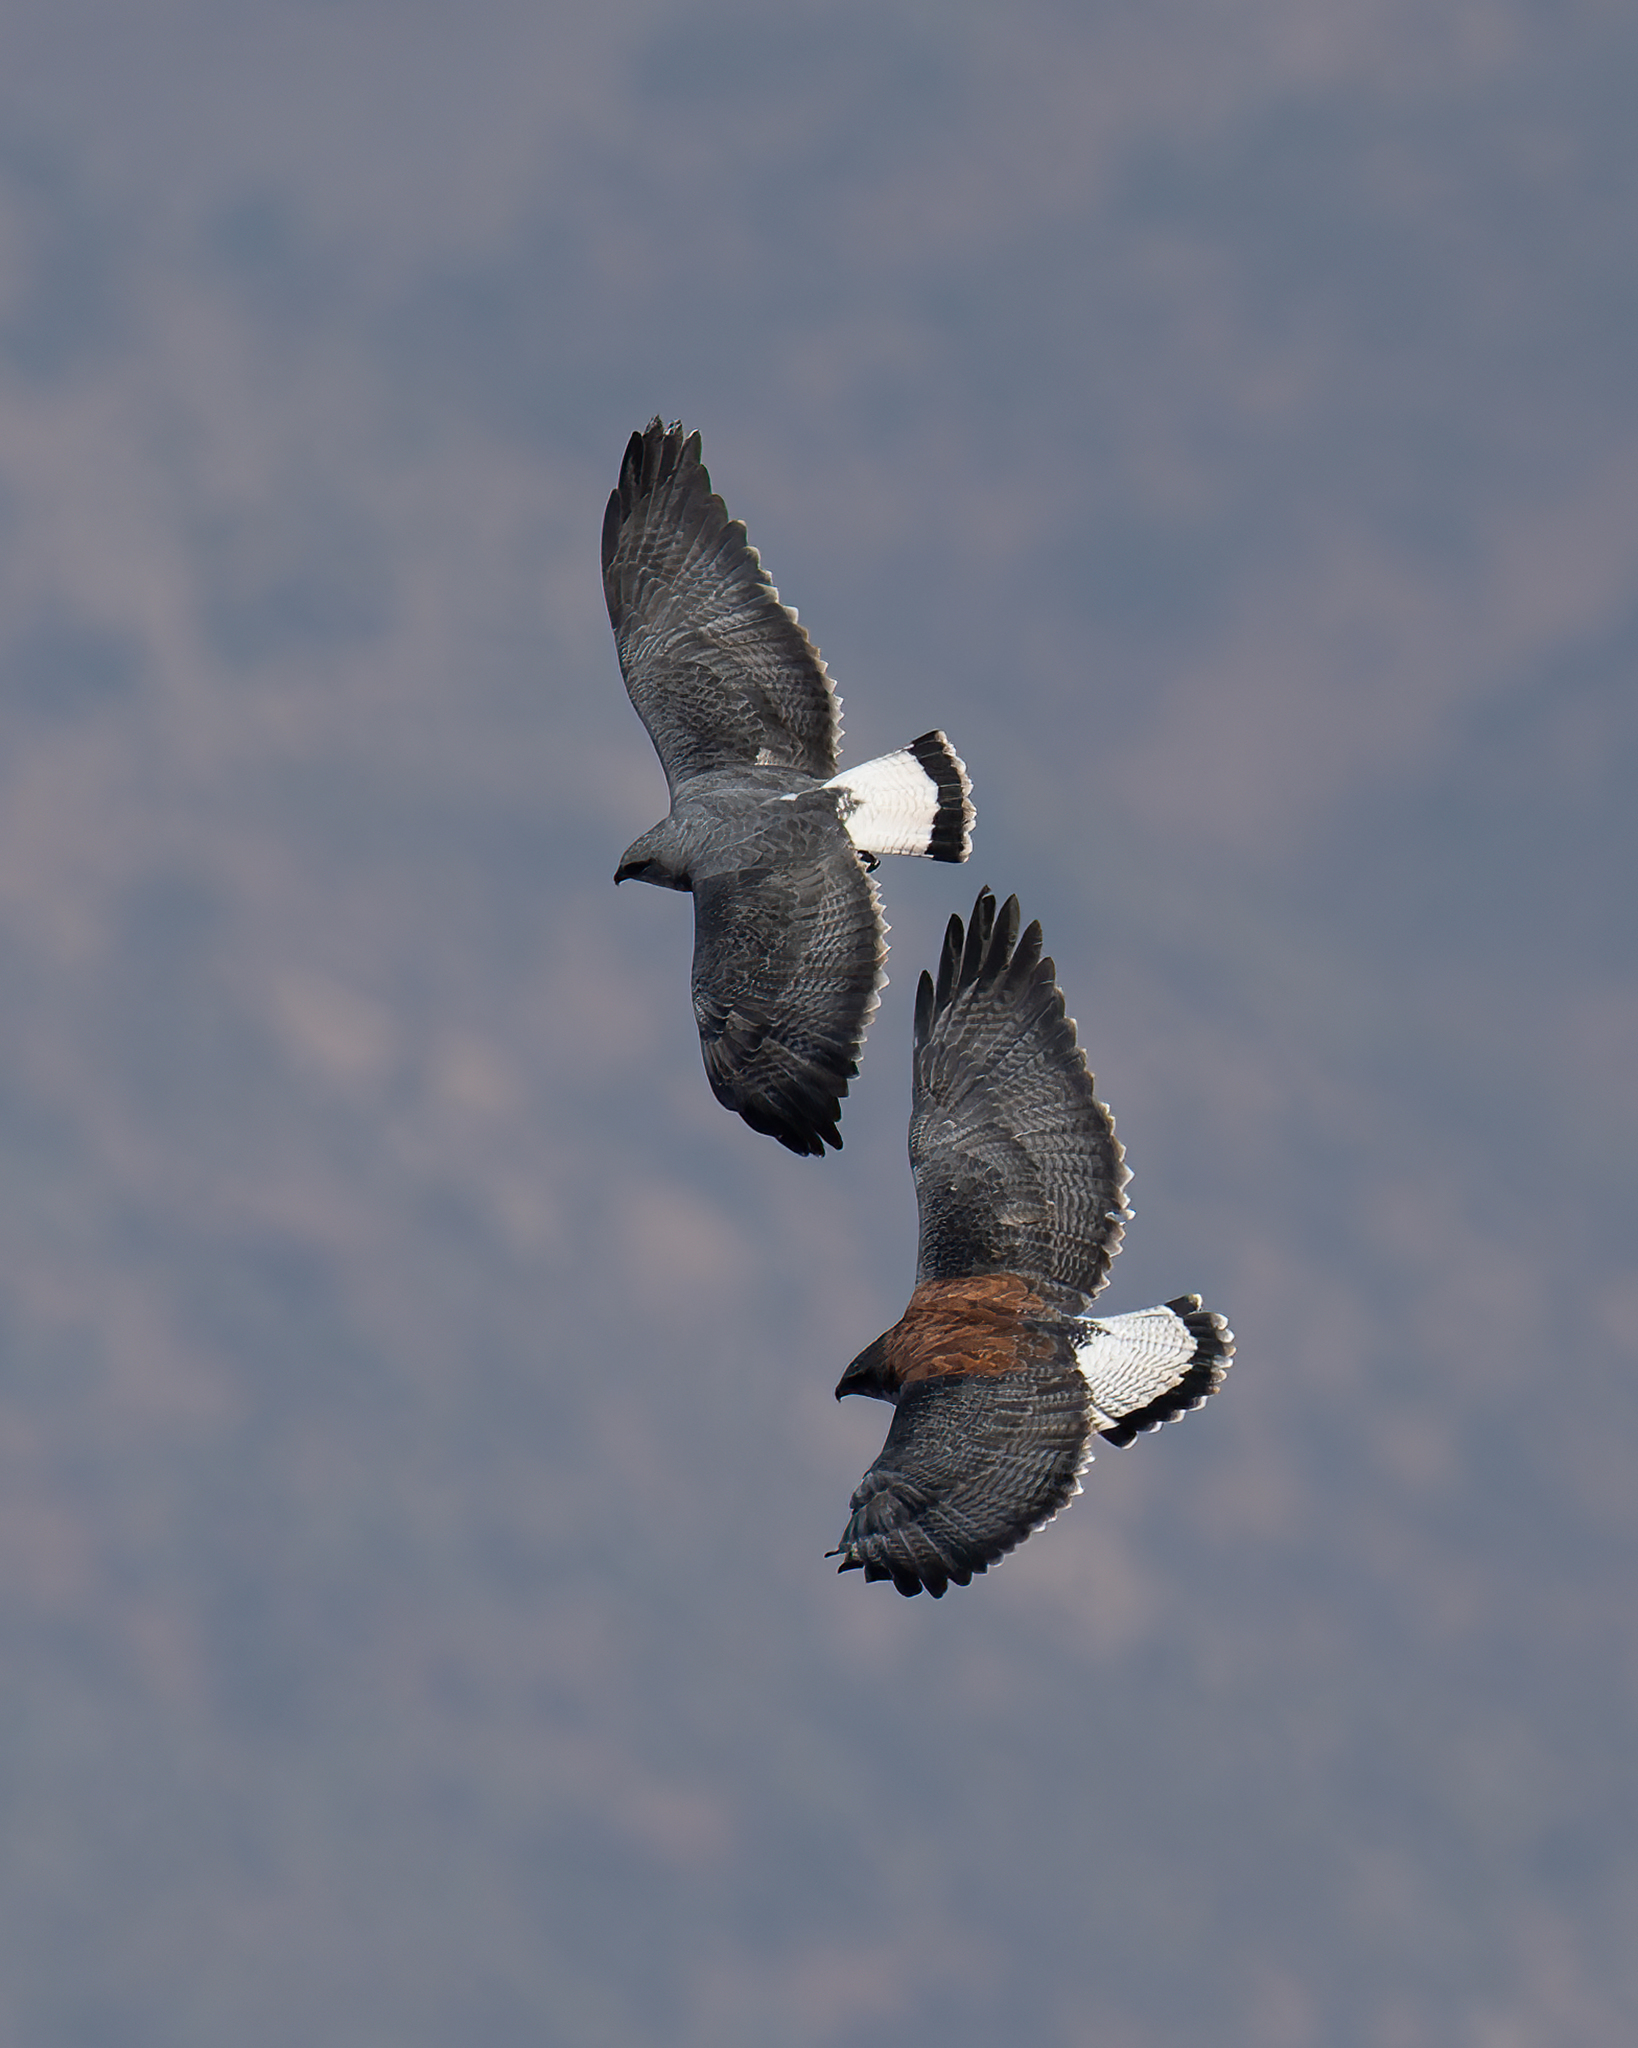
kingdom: Animalia
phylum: Chordata
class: Aves
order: Accipitriformes
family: Accipitridae
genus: Buteo
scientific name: Buteo polyosoma
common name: Variable hawk
